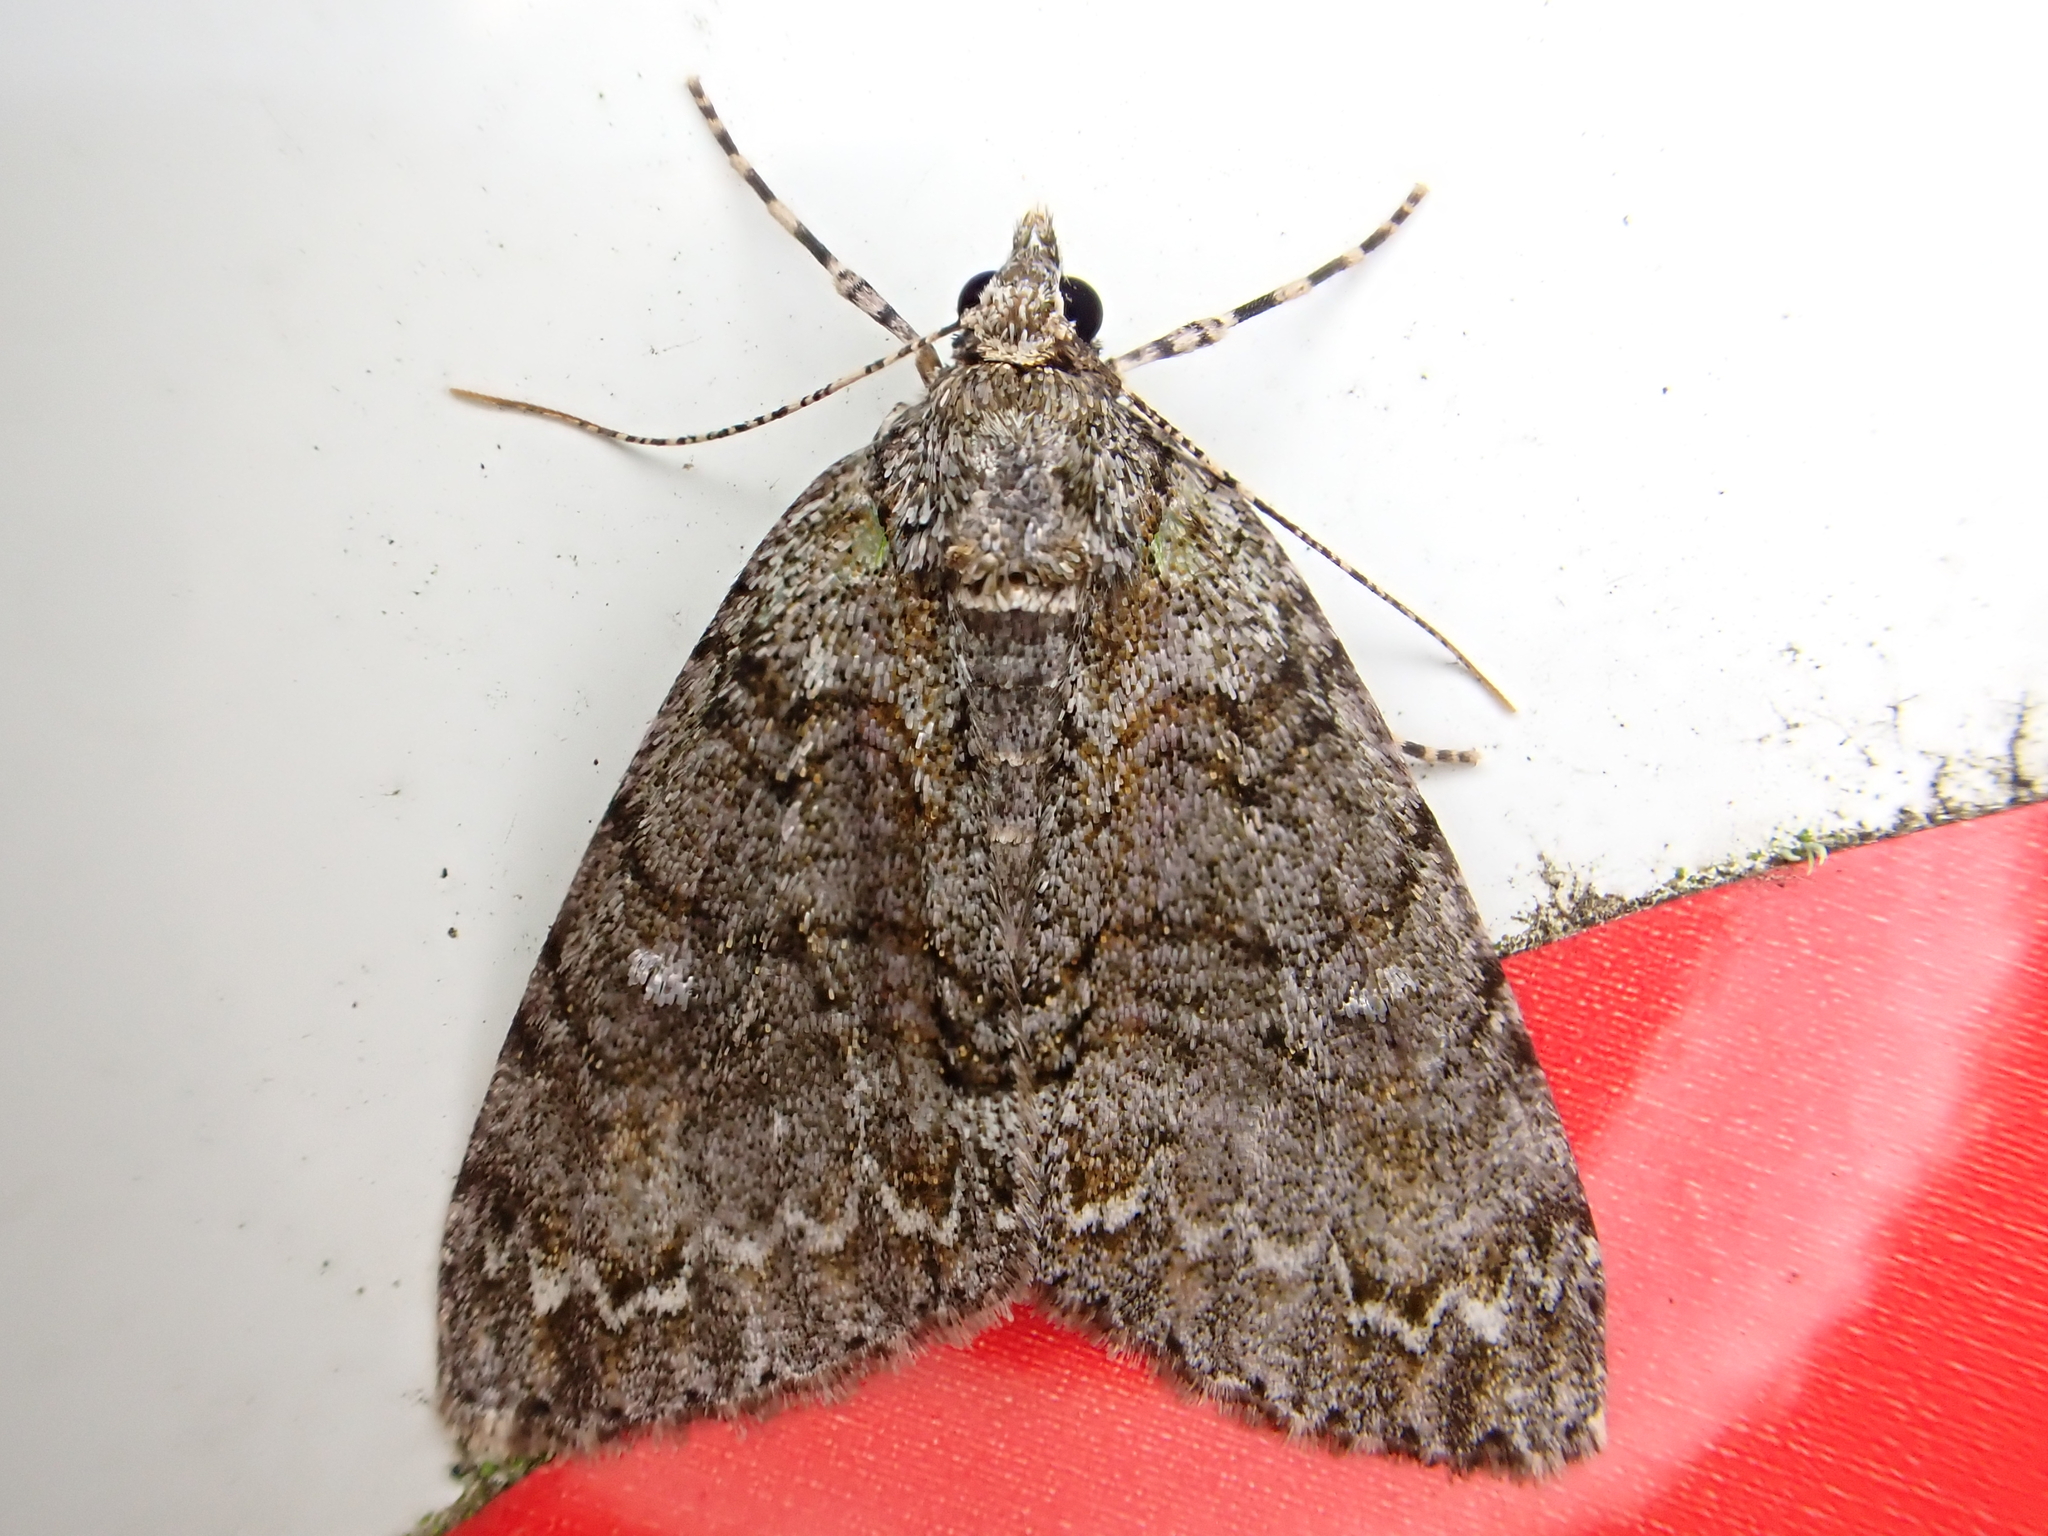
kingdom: Animalia
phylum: Arthropoda
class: Insecta
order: Lepidoptera
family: Geometridae
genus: Pseudocoremia
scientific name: Pseudocoremia suavis
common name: Common forest looper
